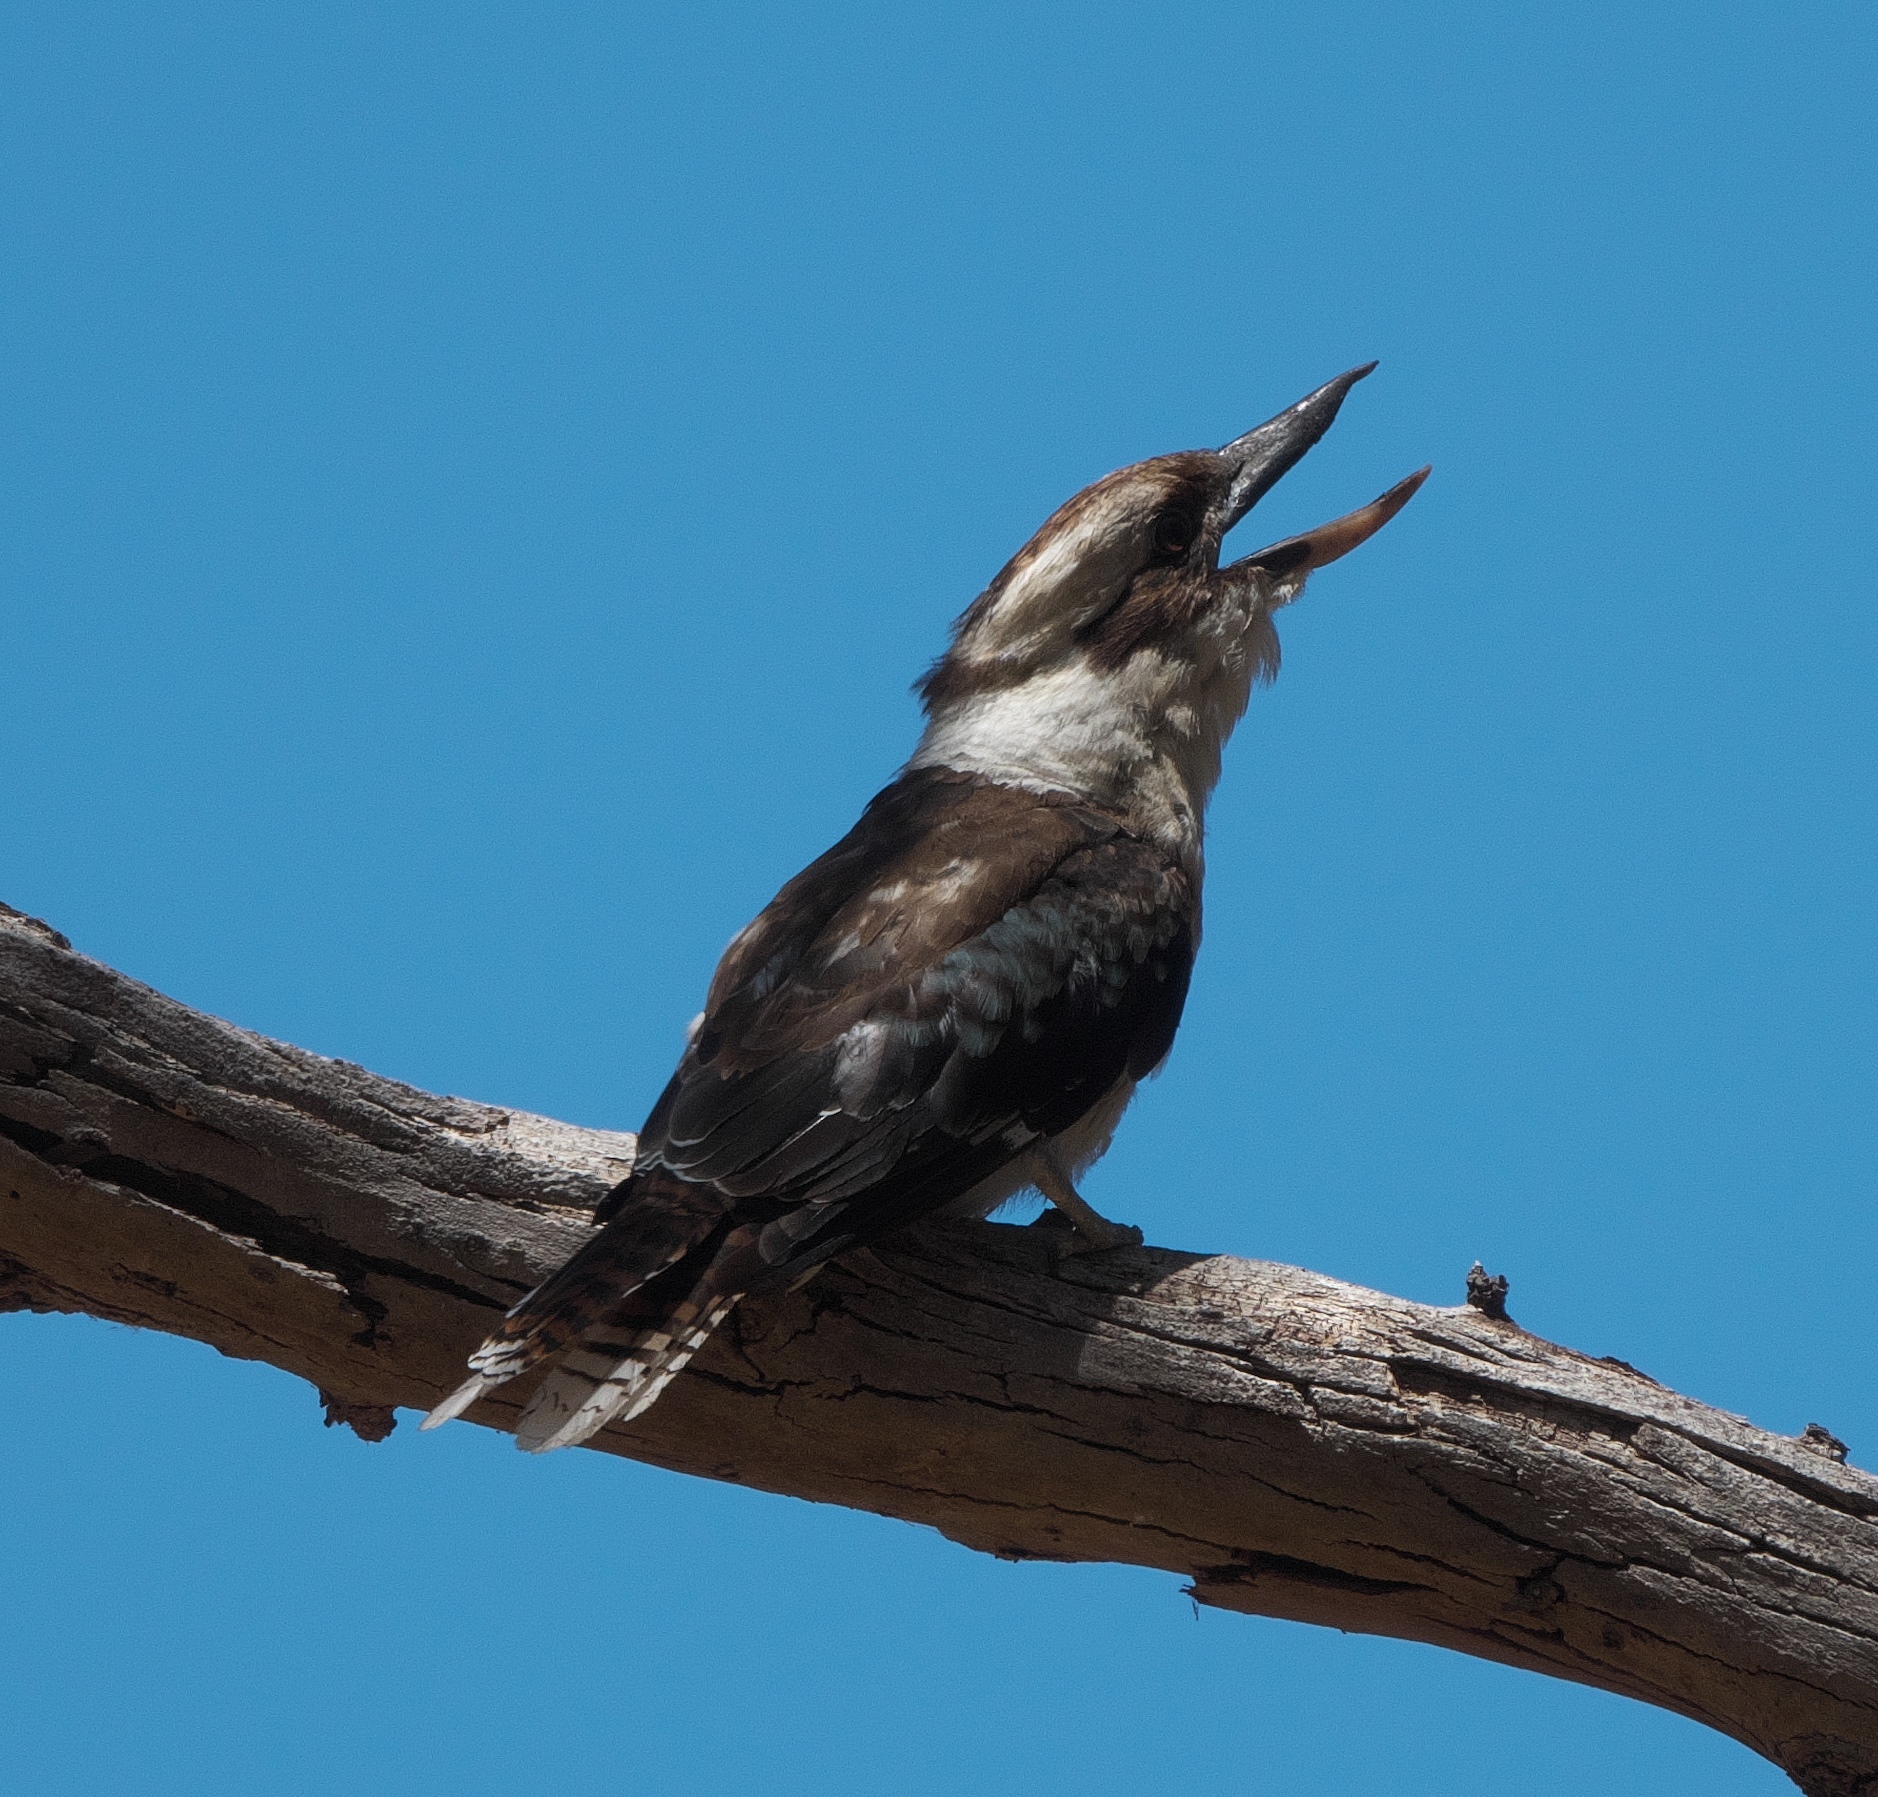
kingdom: Animalia
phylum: Chordata
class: Aves
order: Coraciiformes
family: Alcedinidae
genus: Dacelo
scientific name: Dacelo novaeguineae
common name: Laughing kookaburra
